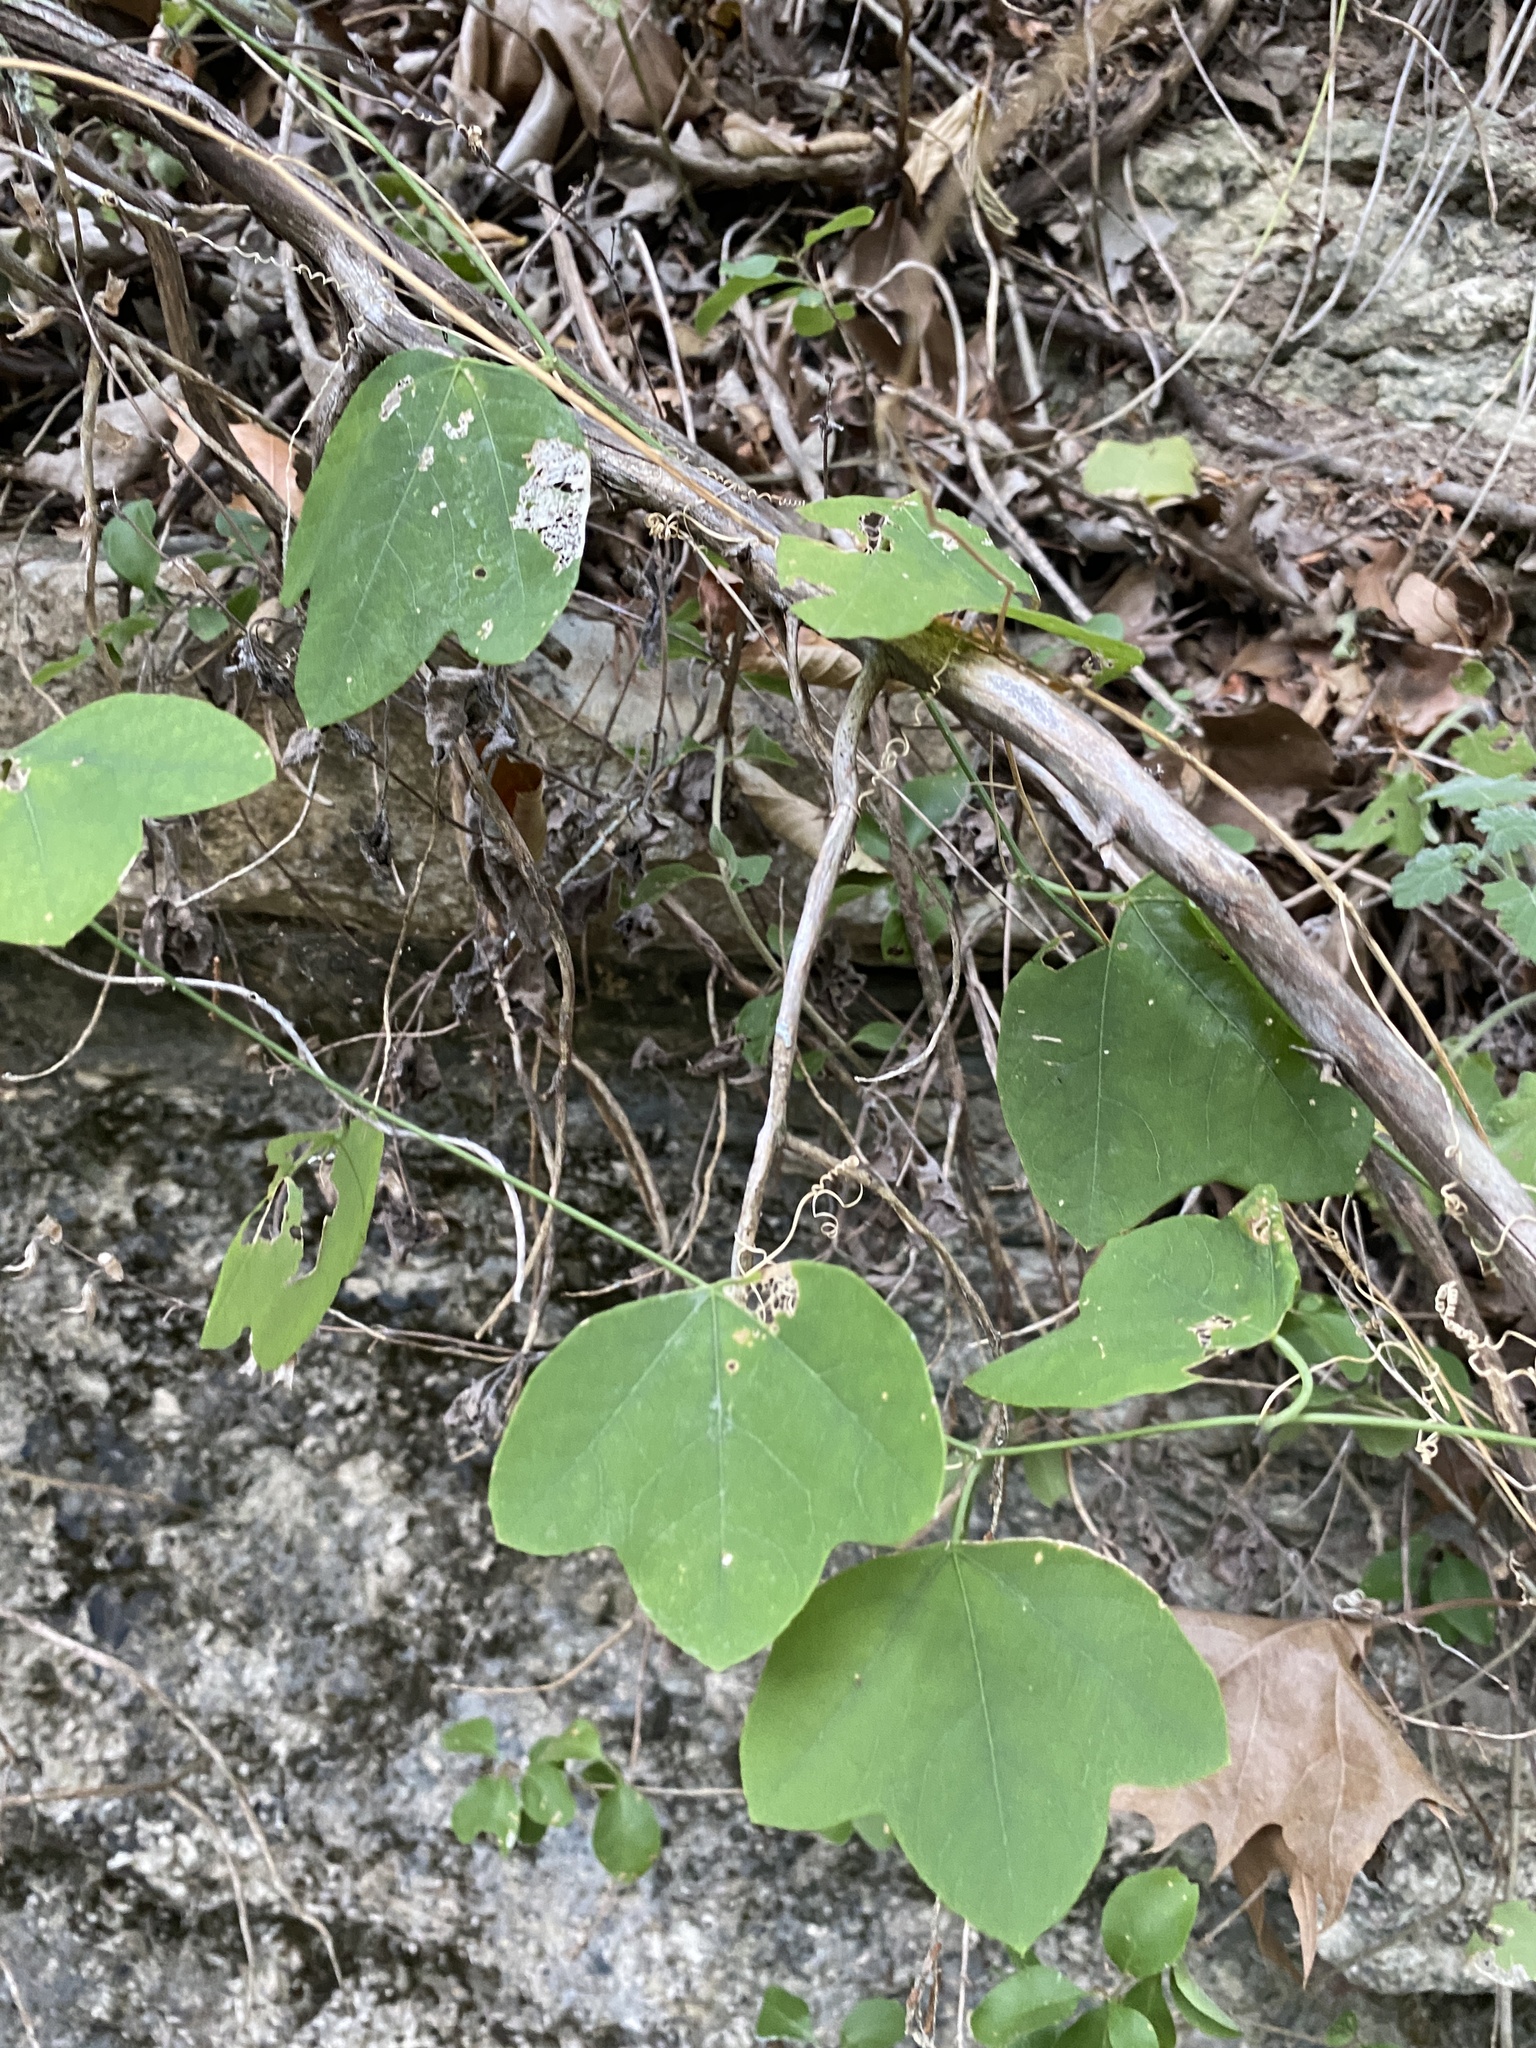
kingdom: Plantae
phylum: Tracheophyta
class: Magnoliopsida
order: Malpighiales
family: Passifloraceae
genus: Passiflora
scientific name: Passiflora lutea
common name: Yellow passionflower
